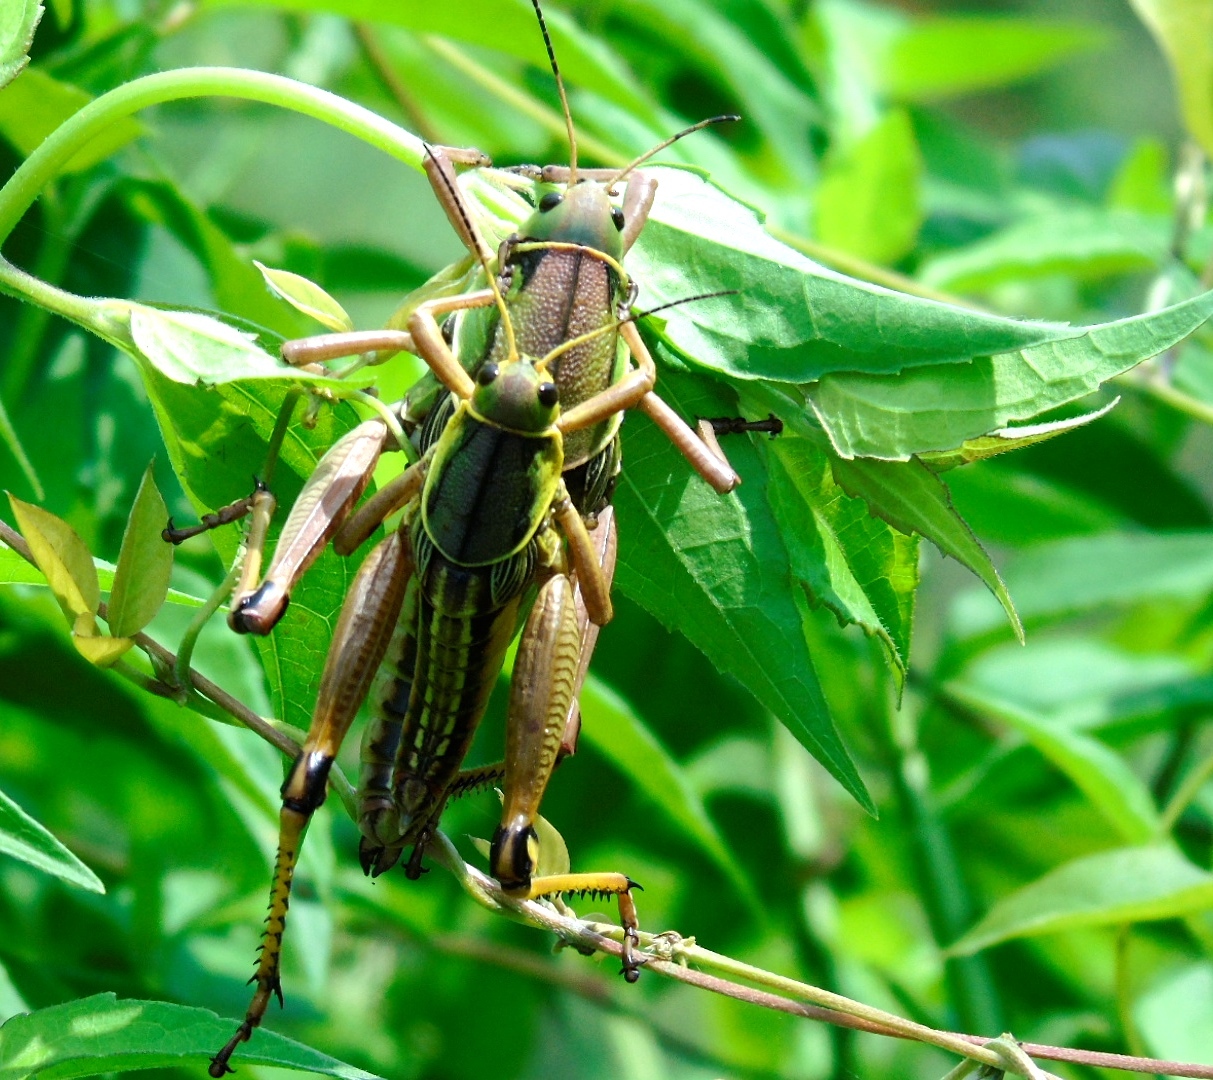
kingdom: Animalia
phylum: Arthropoda
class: Insecta
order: Orthoptera
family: Romaleidae
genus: Brachystola
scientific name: Brachystola behrensii
